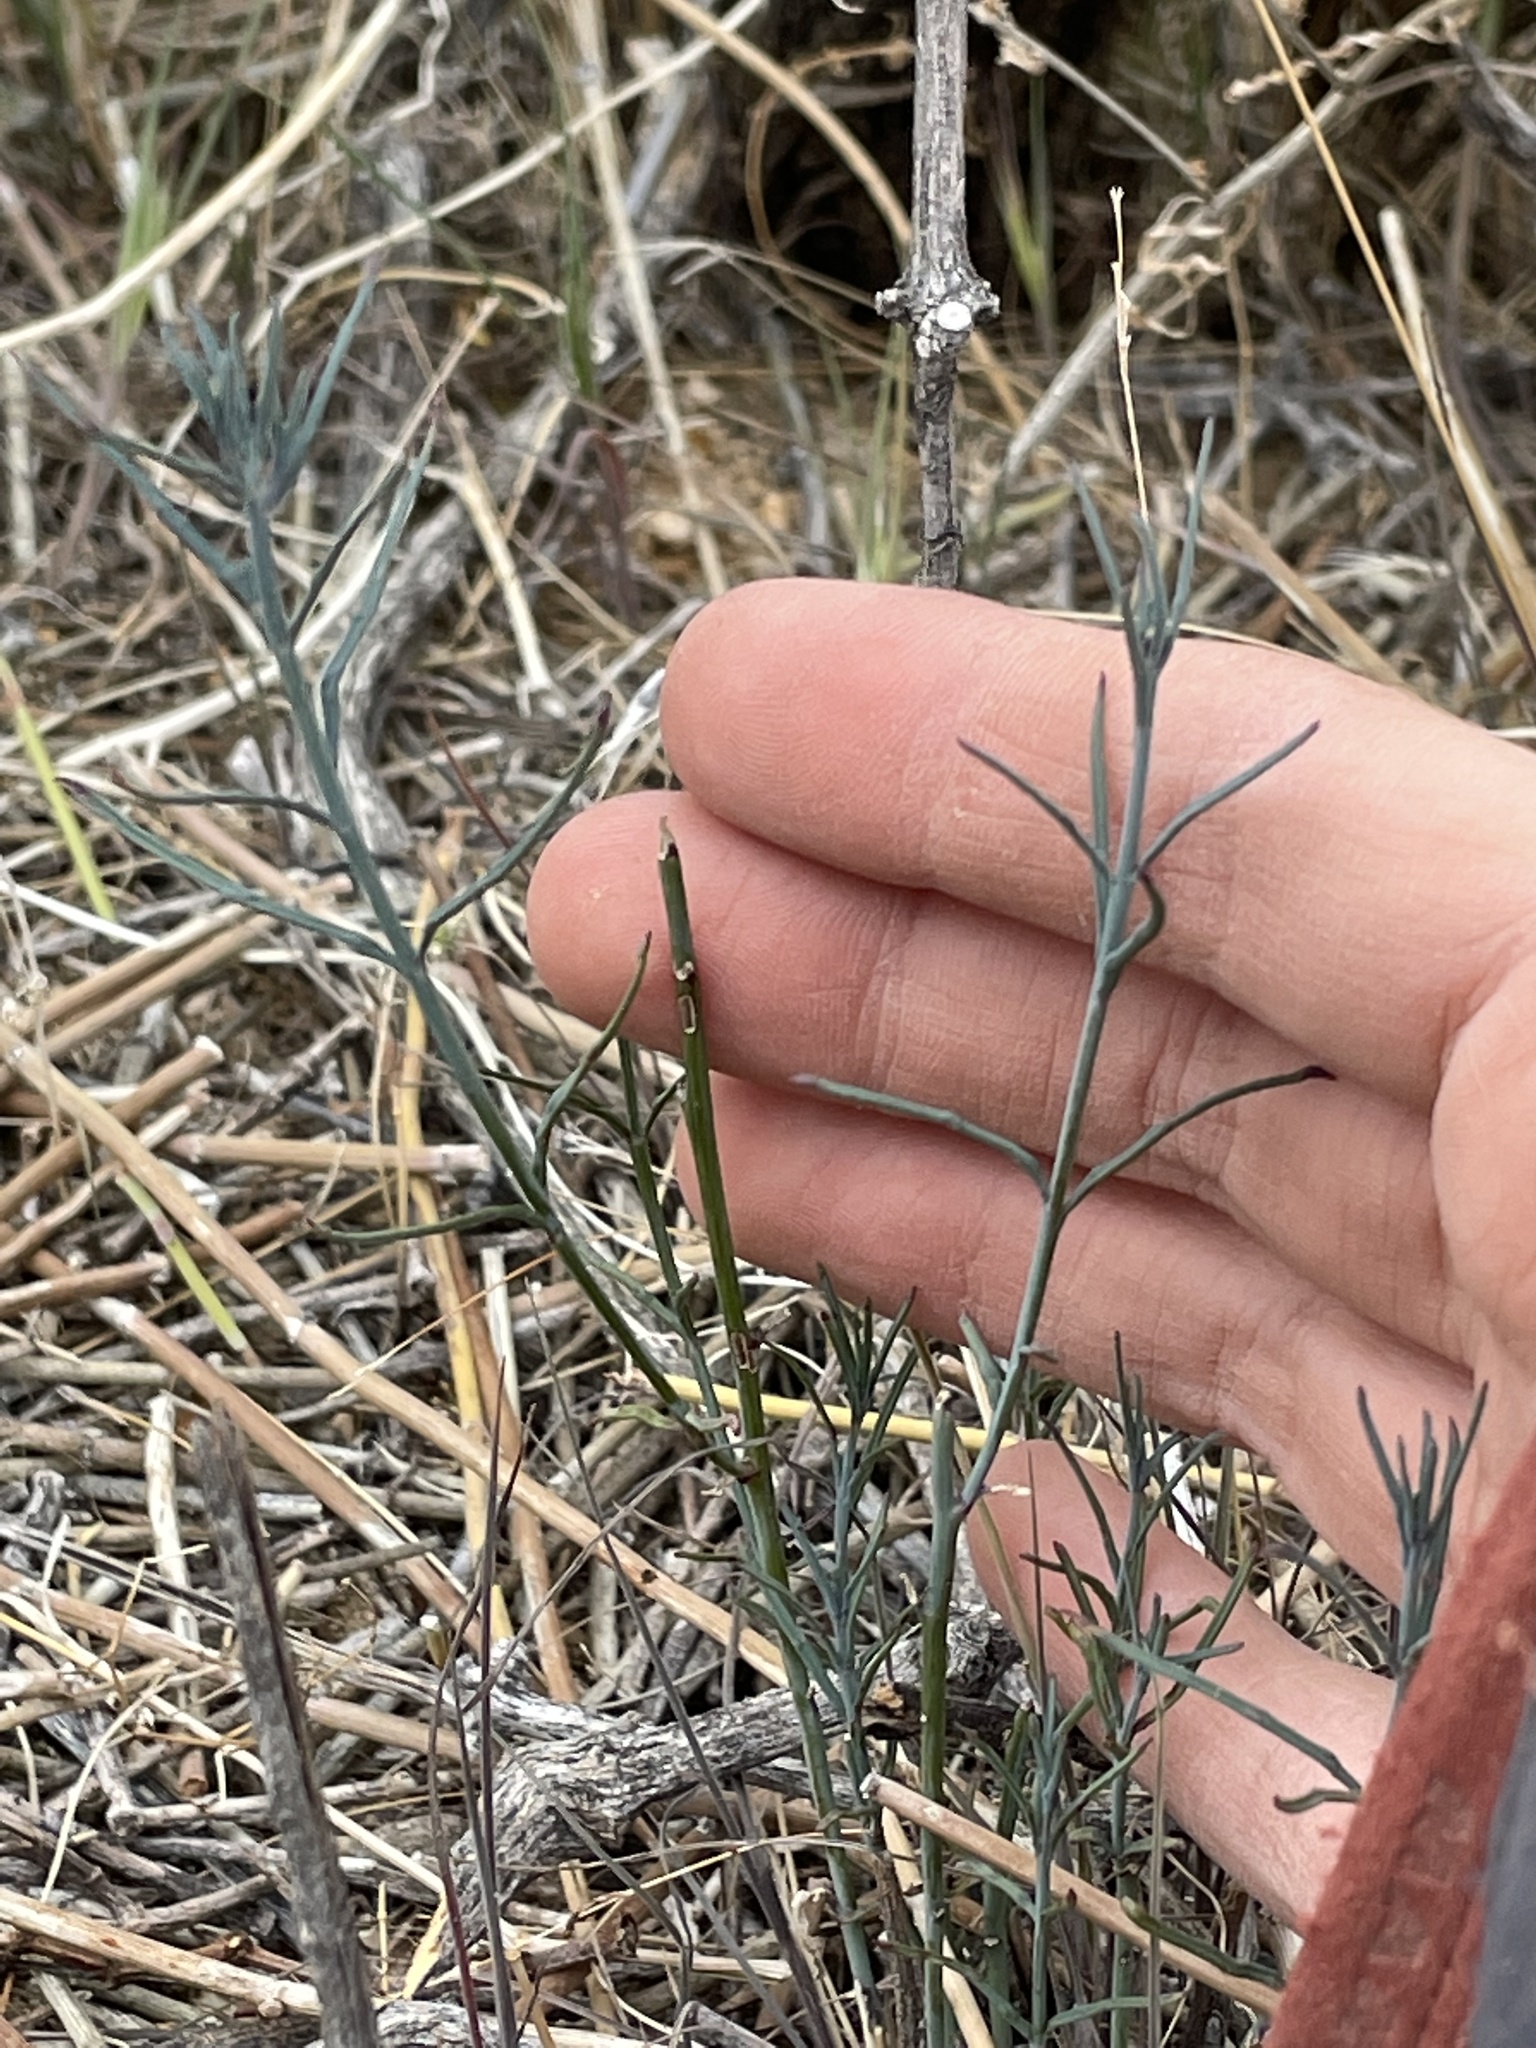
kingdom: Plantae
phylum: Tracheophyta
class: Magnoliopsida
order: Asterales
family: Asteraceae
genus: Porophyllum
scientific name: Porophyllum gracile
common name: Odora
